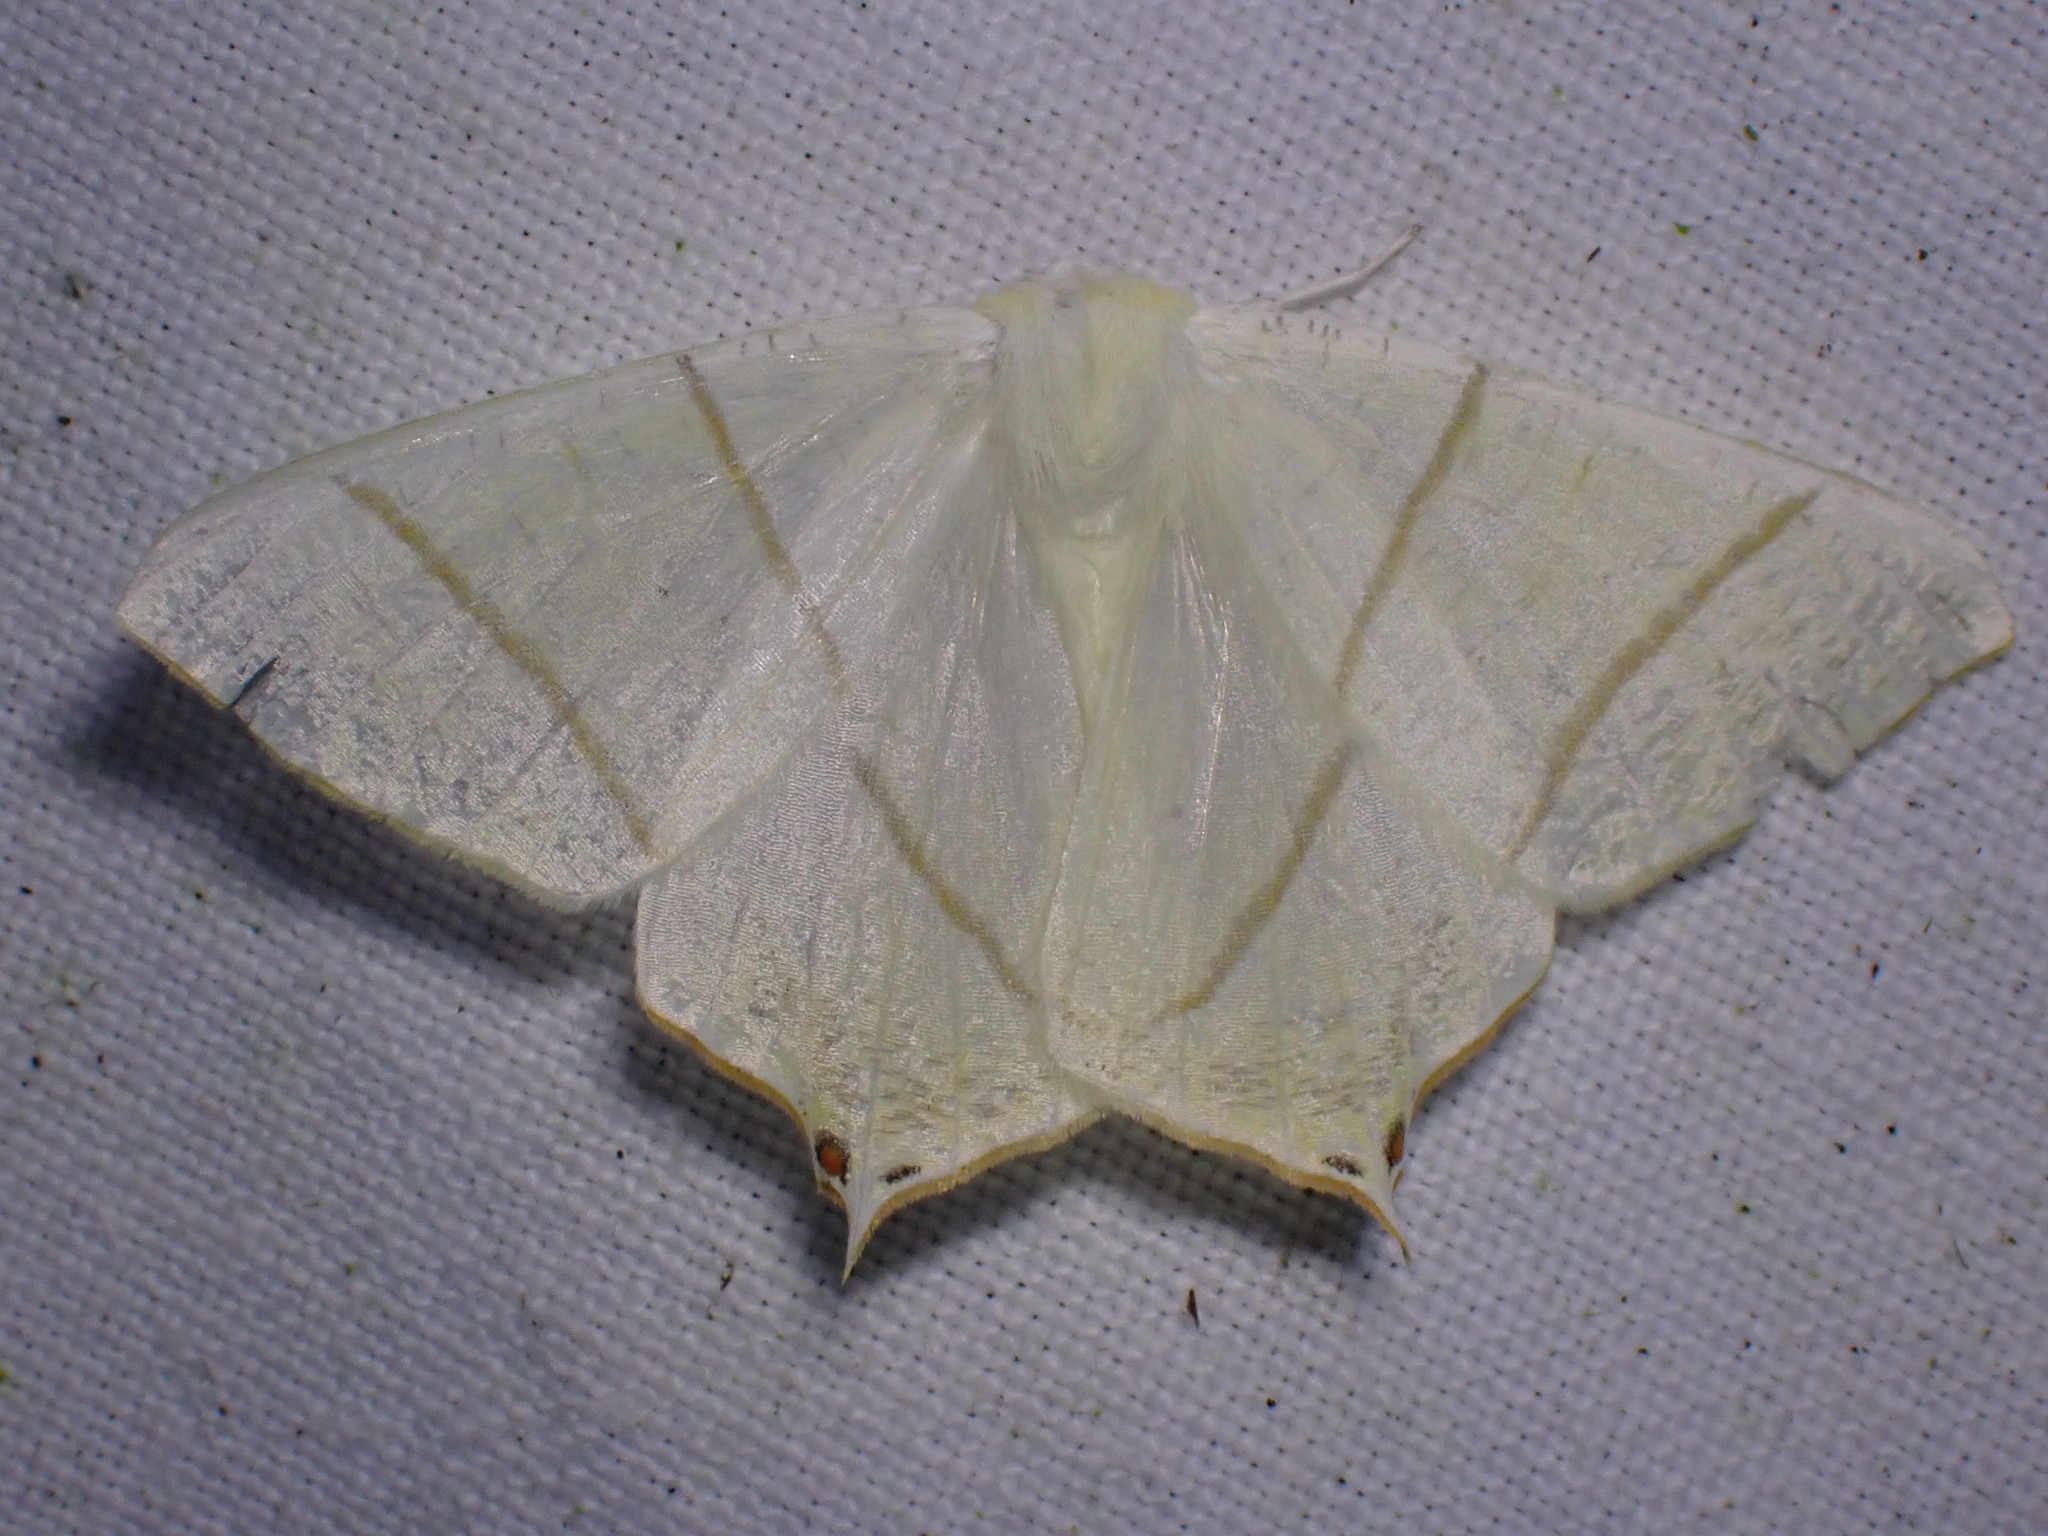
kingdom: Animalia
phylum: Arthropoda
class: Insecta
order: Lepidoptera
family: Geometridae
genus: Ourapteryx
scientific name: Ourapteryx sambucaria
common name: Swallow-tailed moth
